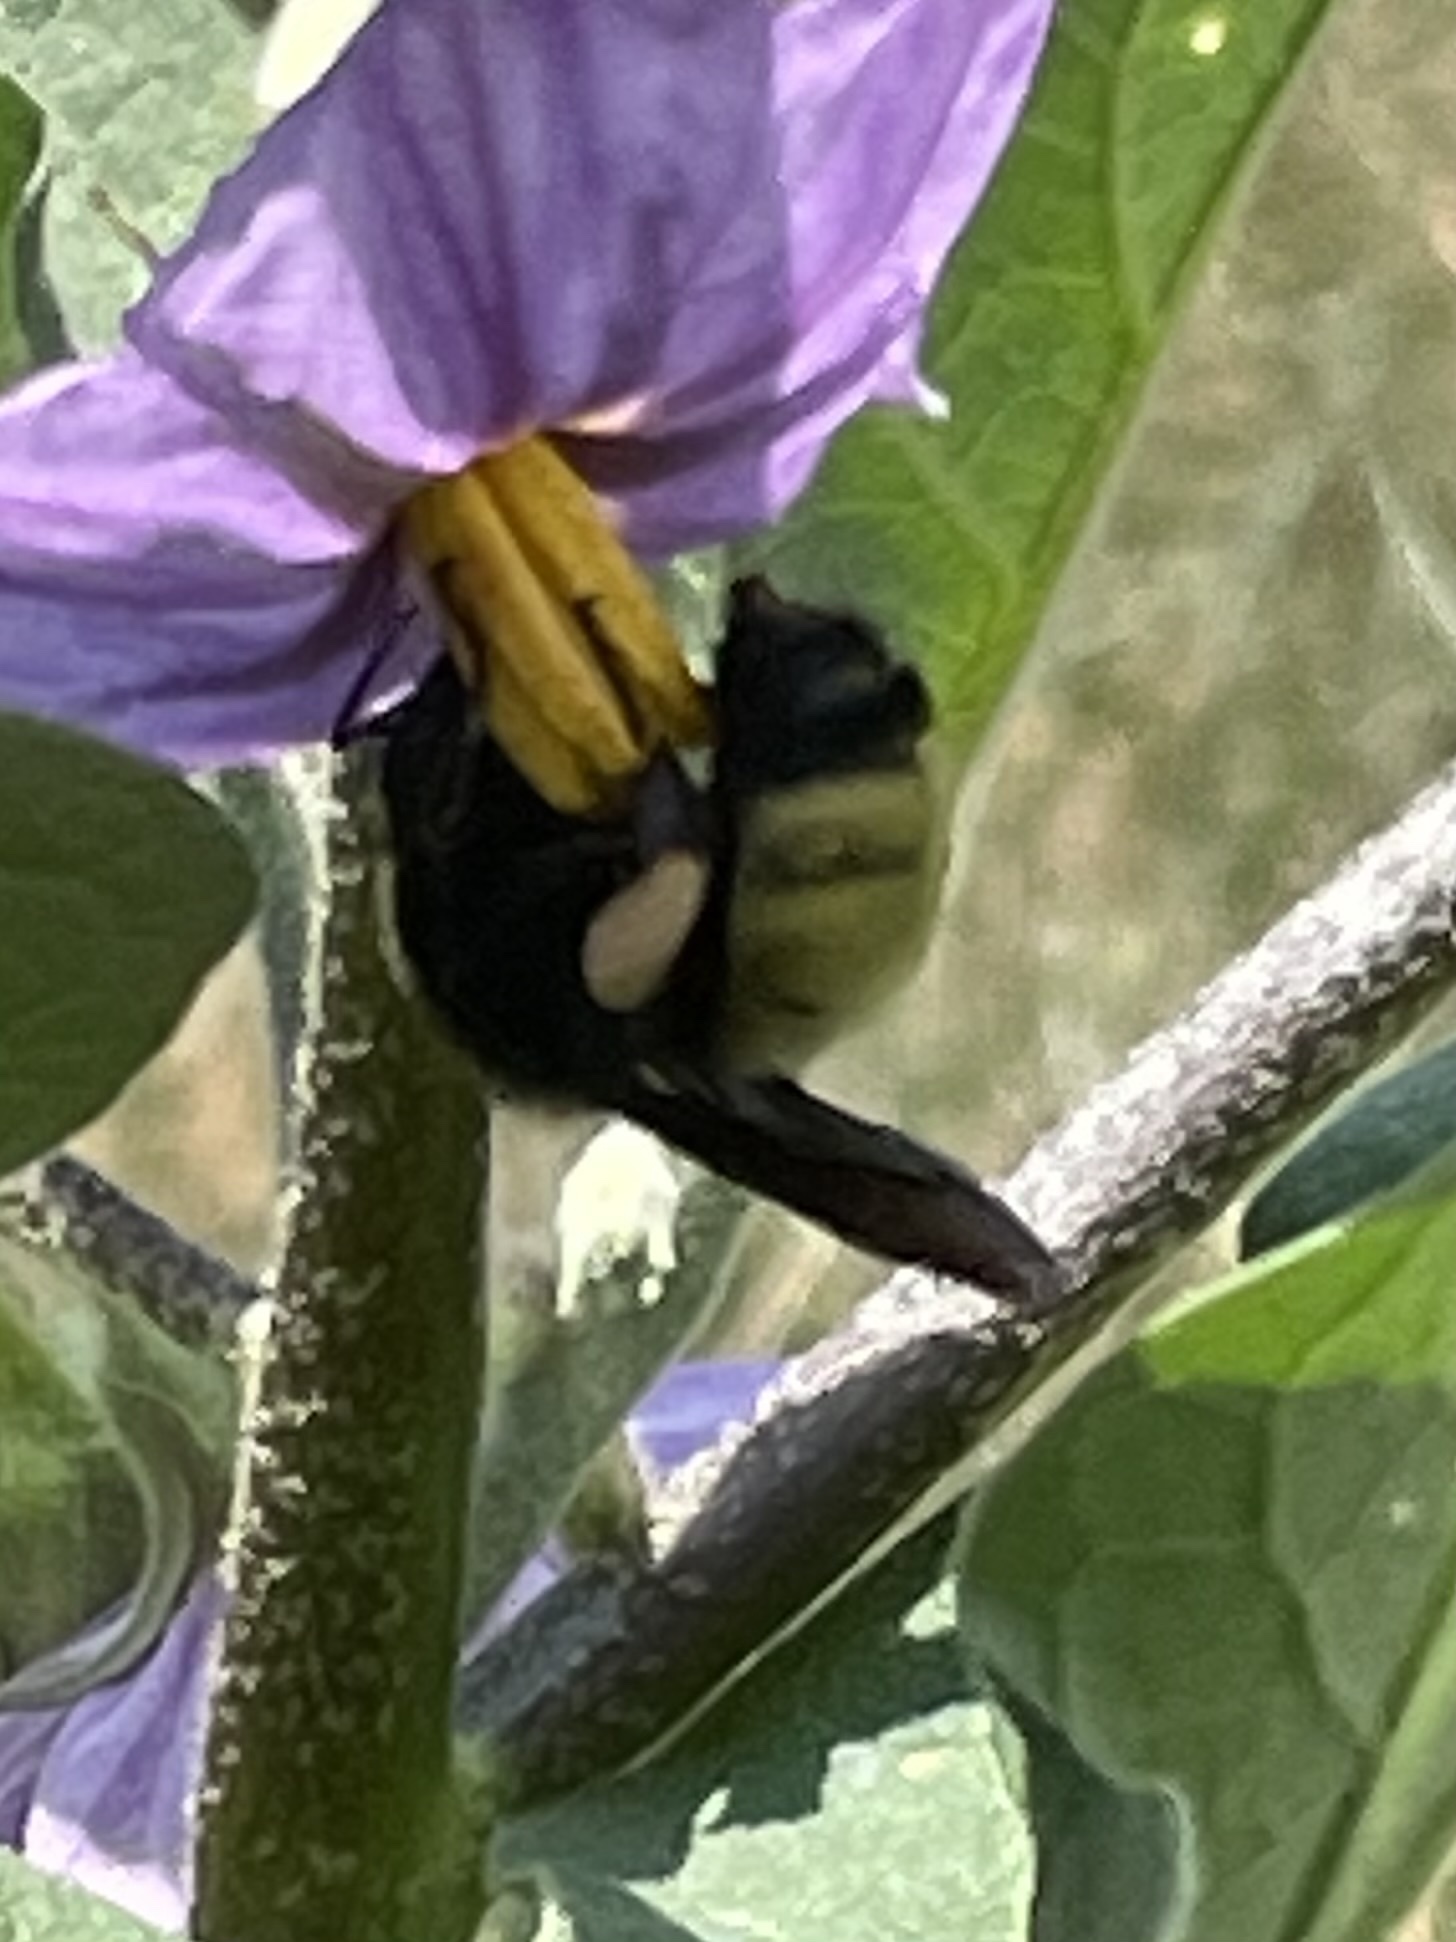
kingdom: Animalia
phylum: Arthropoda
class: Insecta
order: Hymenoptera
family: Apidae
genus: Bombus
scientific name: Bombus pensylvanicus
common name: Bumble bee
